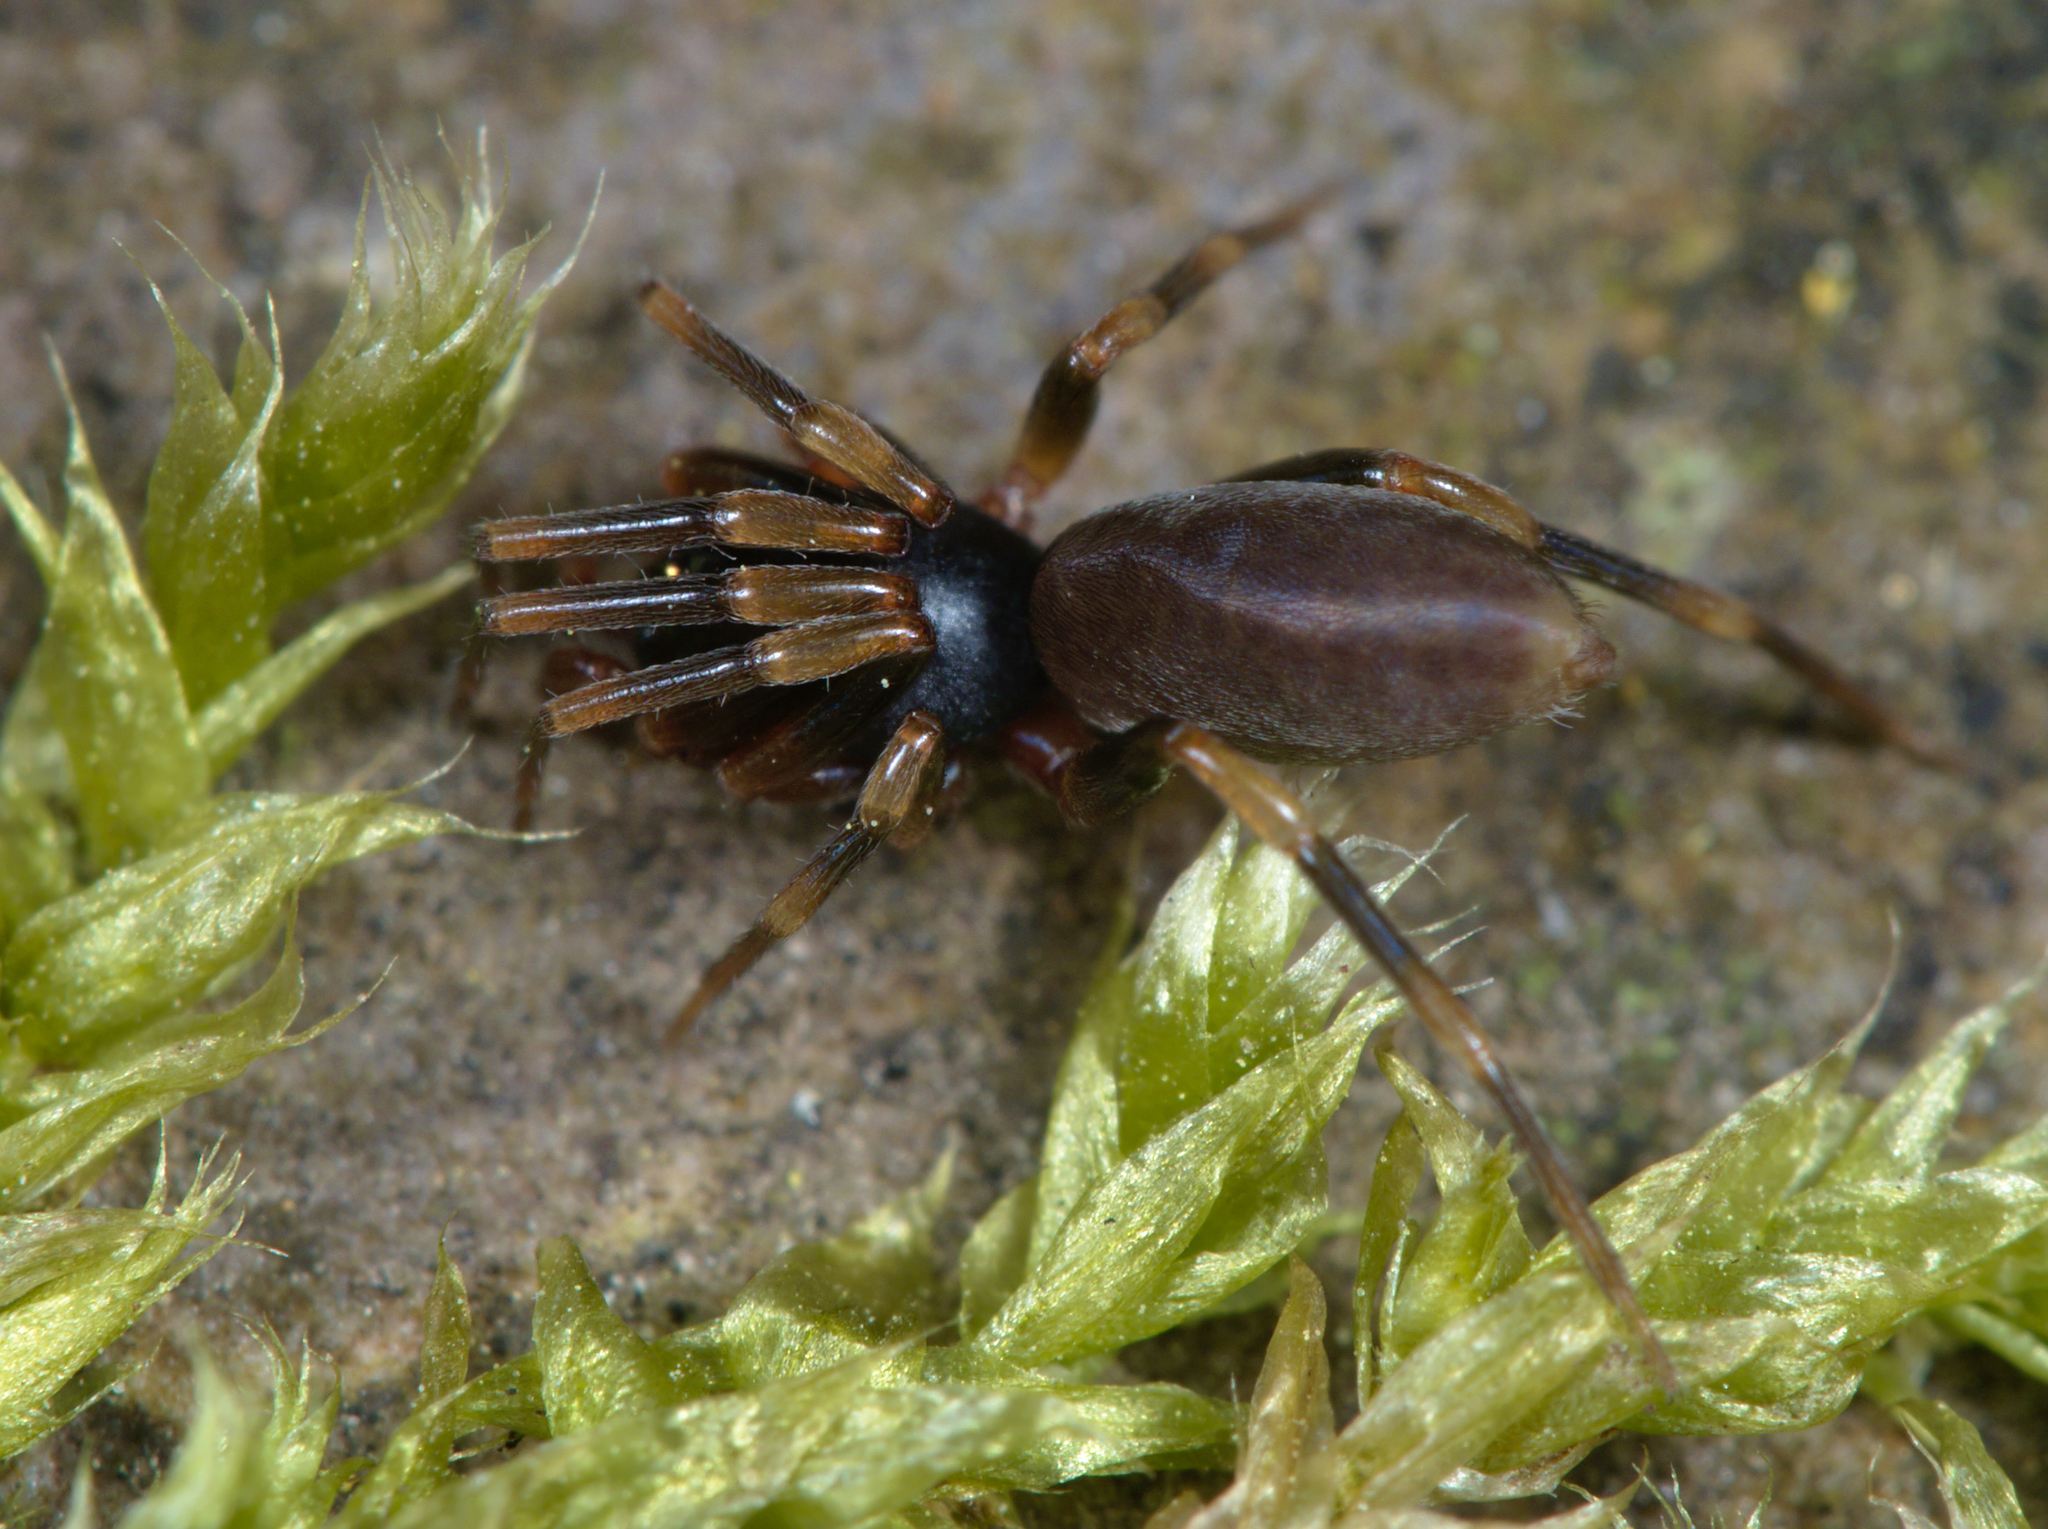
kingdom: Animalia
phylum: Arthropoda
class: Arachnida
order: Araneae
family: Dysderidae
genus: Harpactea
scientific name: Harpactea hombergi
